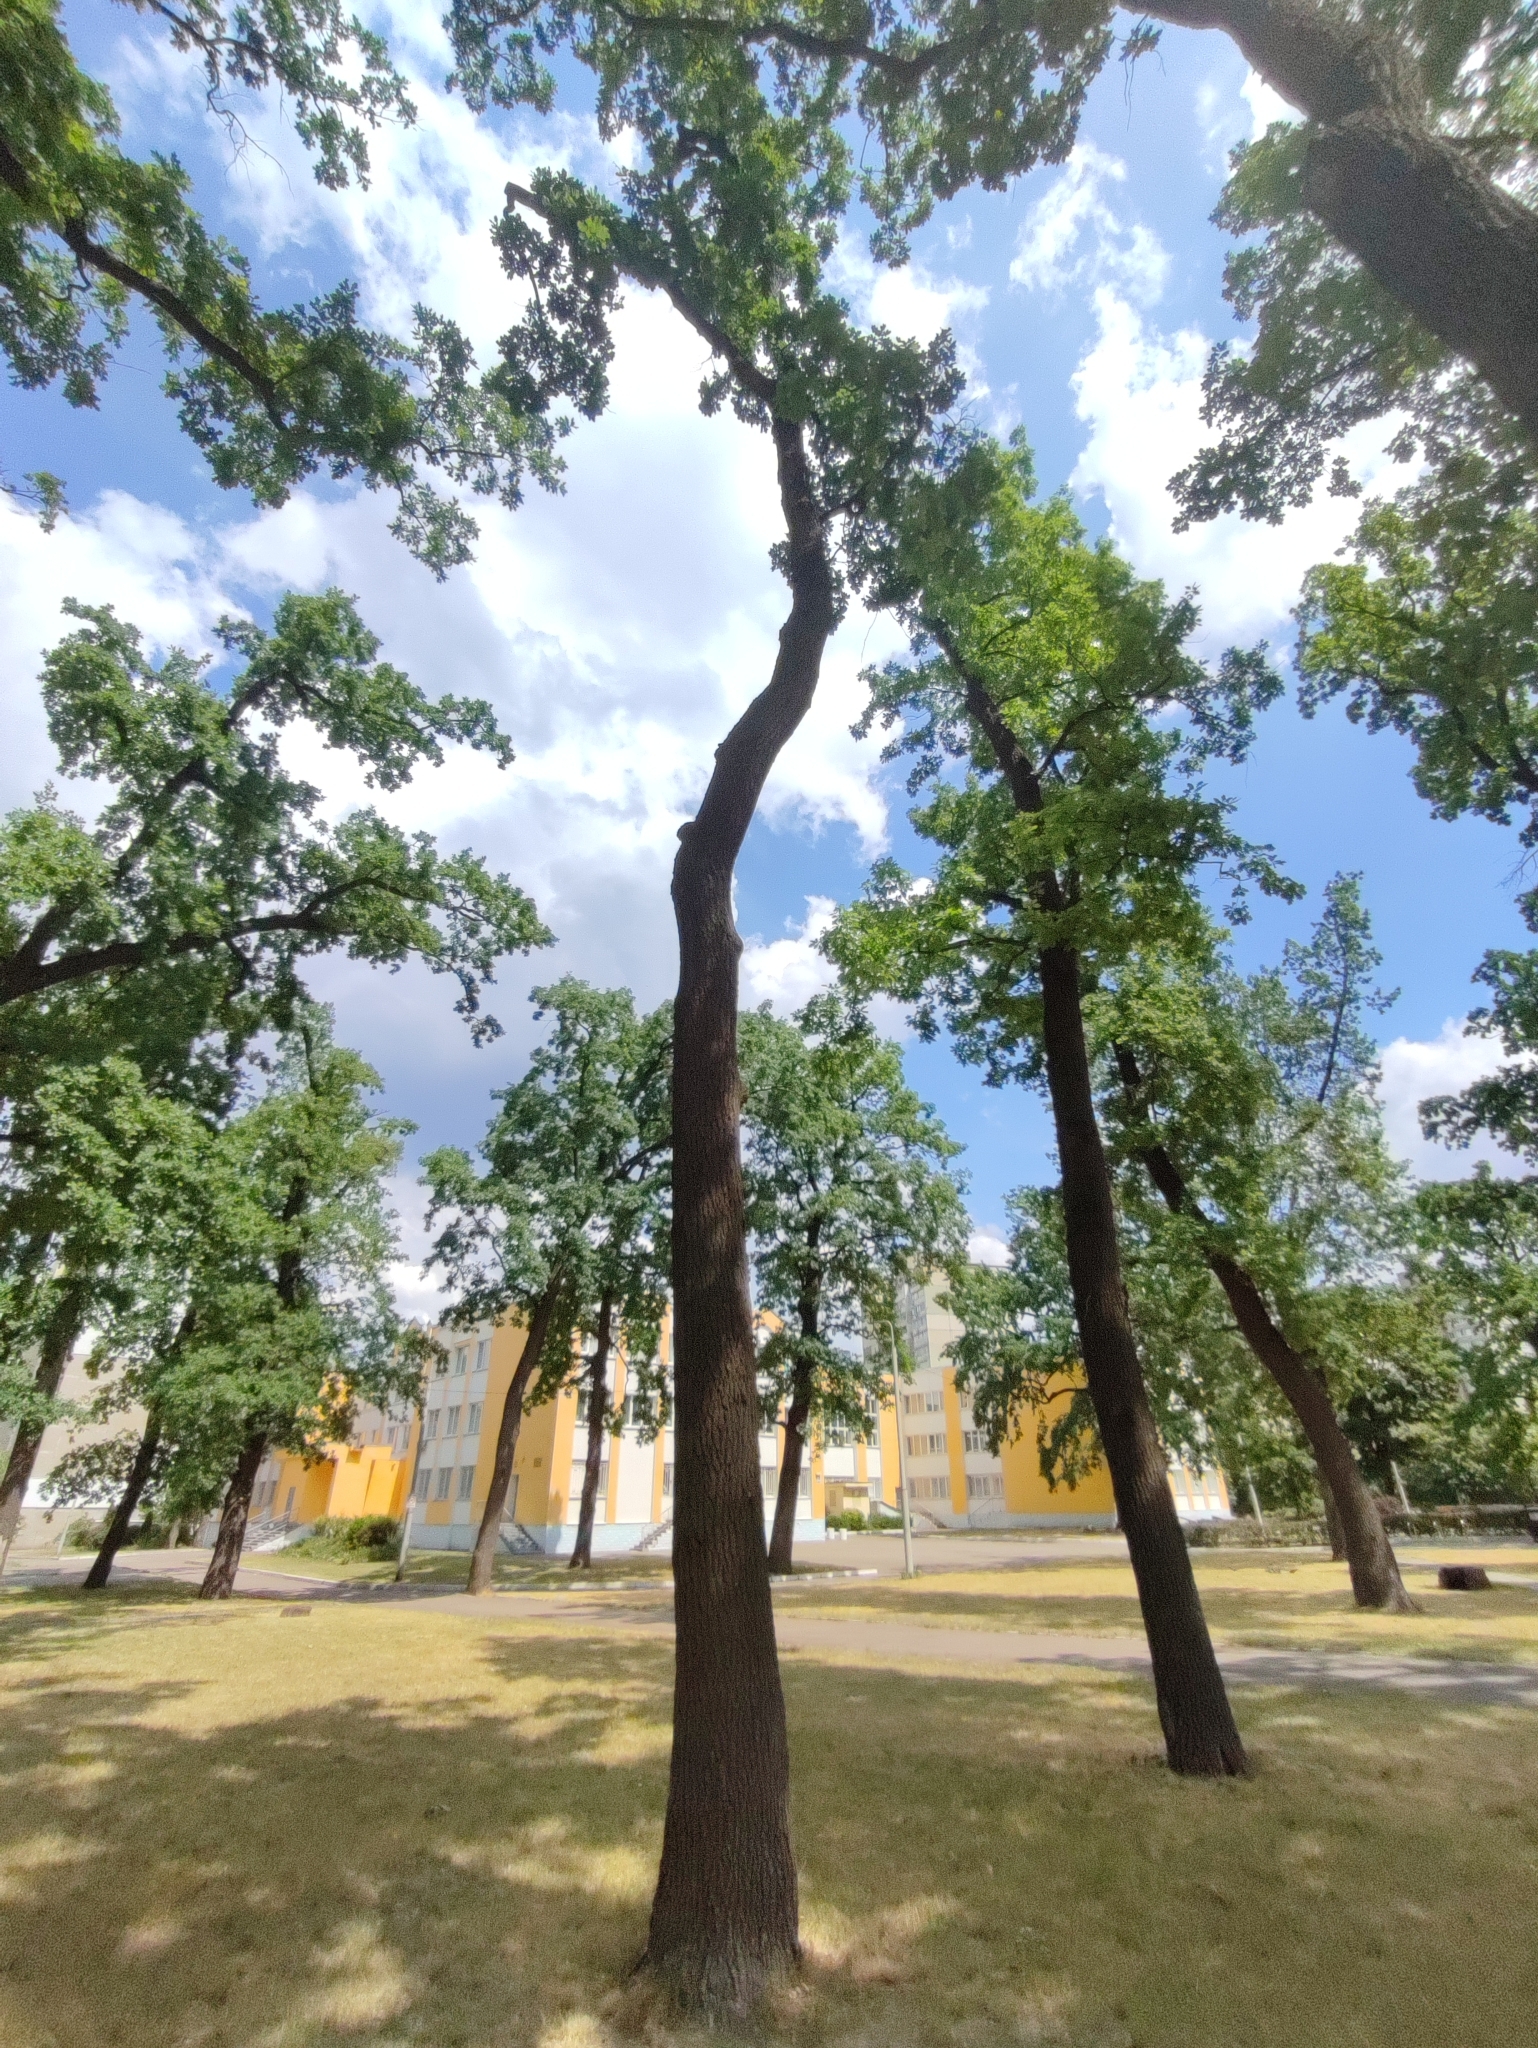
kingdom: Plantae
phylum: Tracheophyta
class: Magnoliopsida
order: Fagales
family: Fagaceae
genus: Quercus
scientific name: Quercus robur
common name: Pedunculate oak
